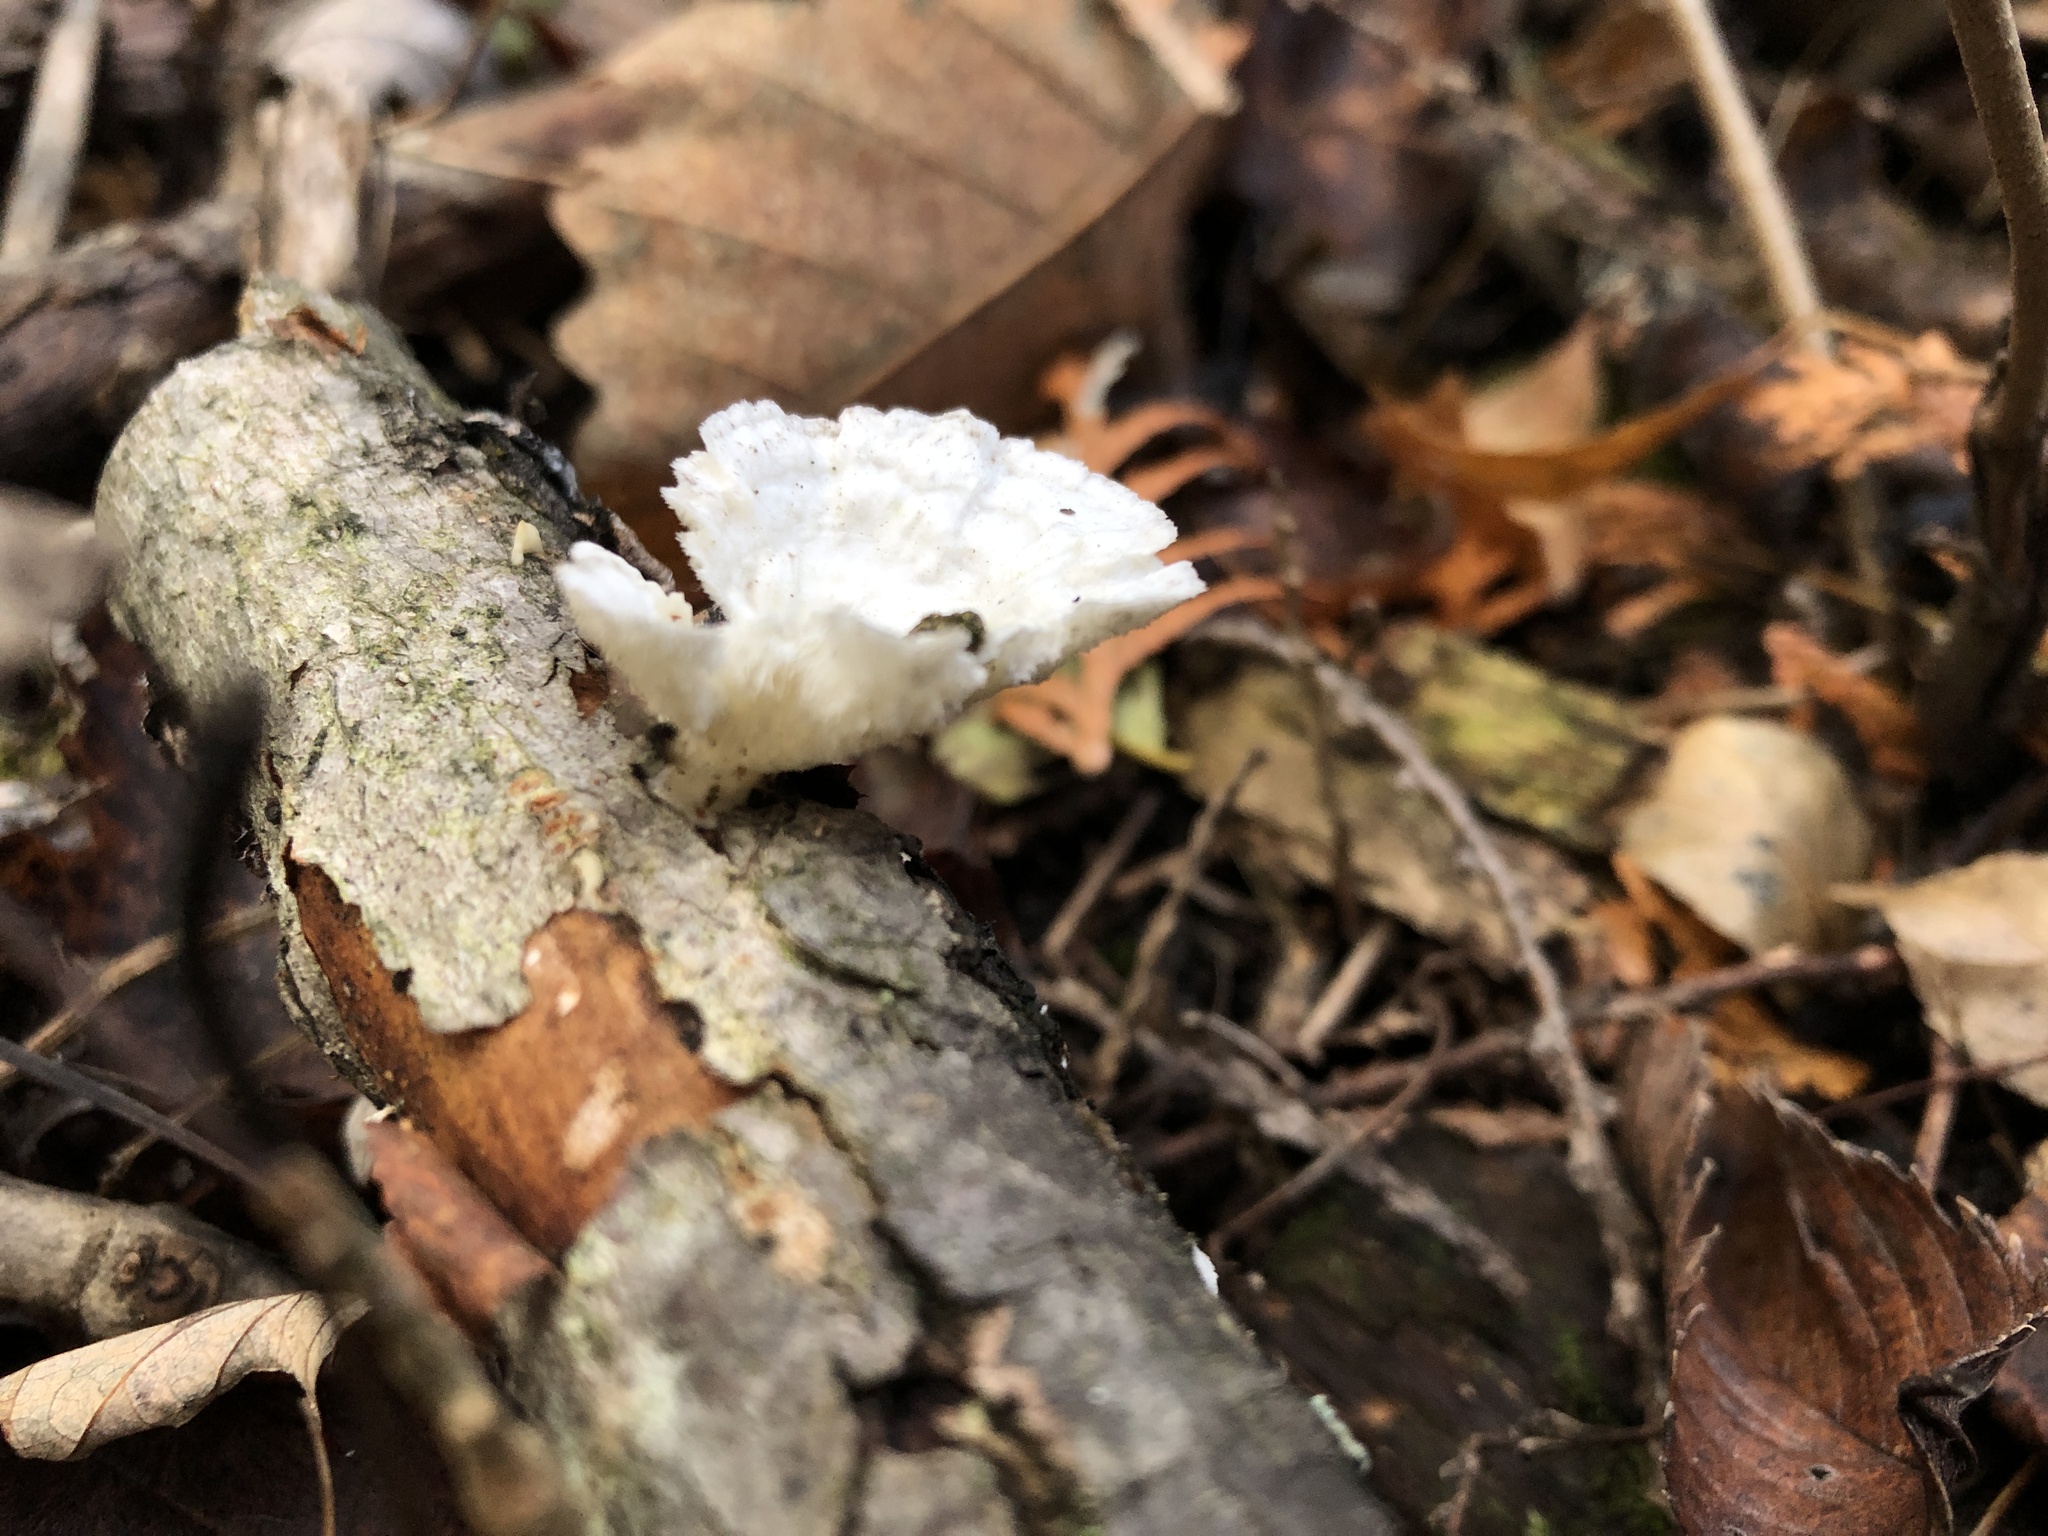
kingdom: Fungi
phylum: Basidiomycota
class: Agaricomycetes
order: Polyporales
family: Polyporaceae
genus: Poronidulus
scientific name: Poronidulus conchifer
